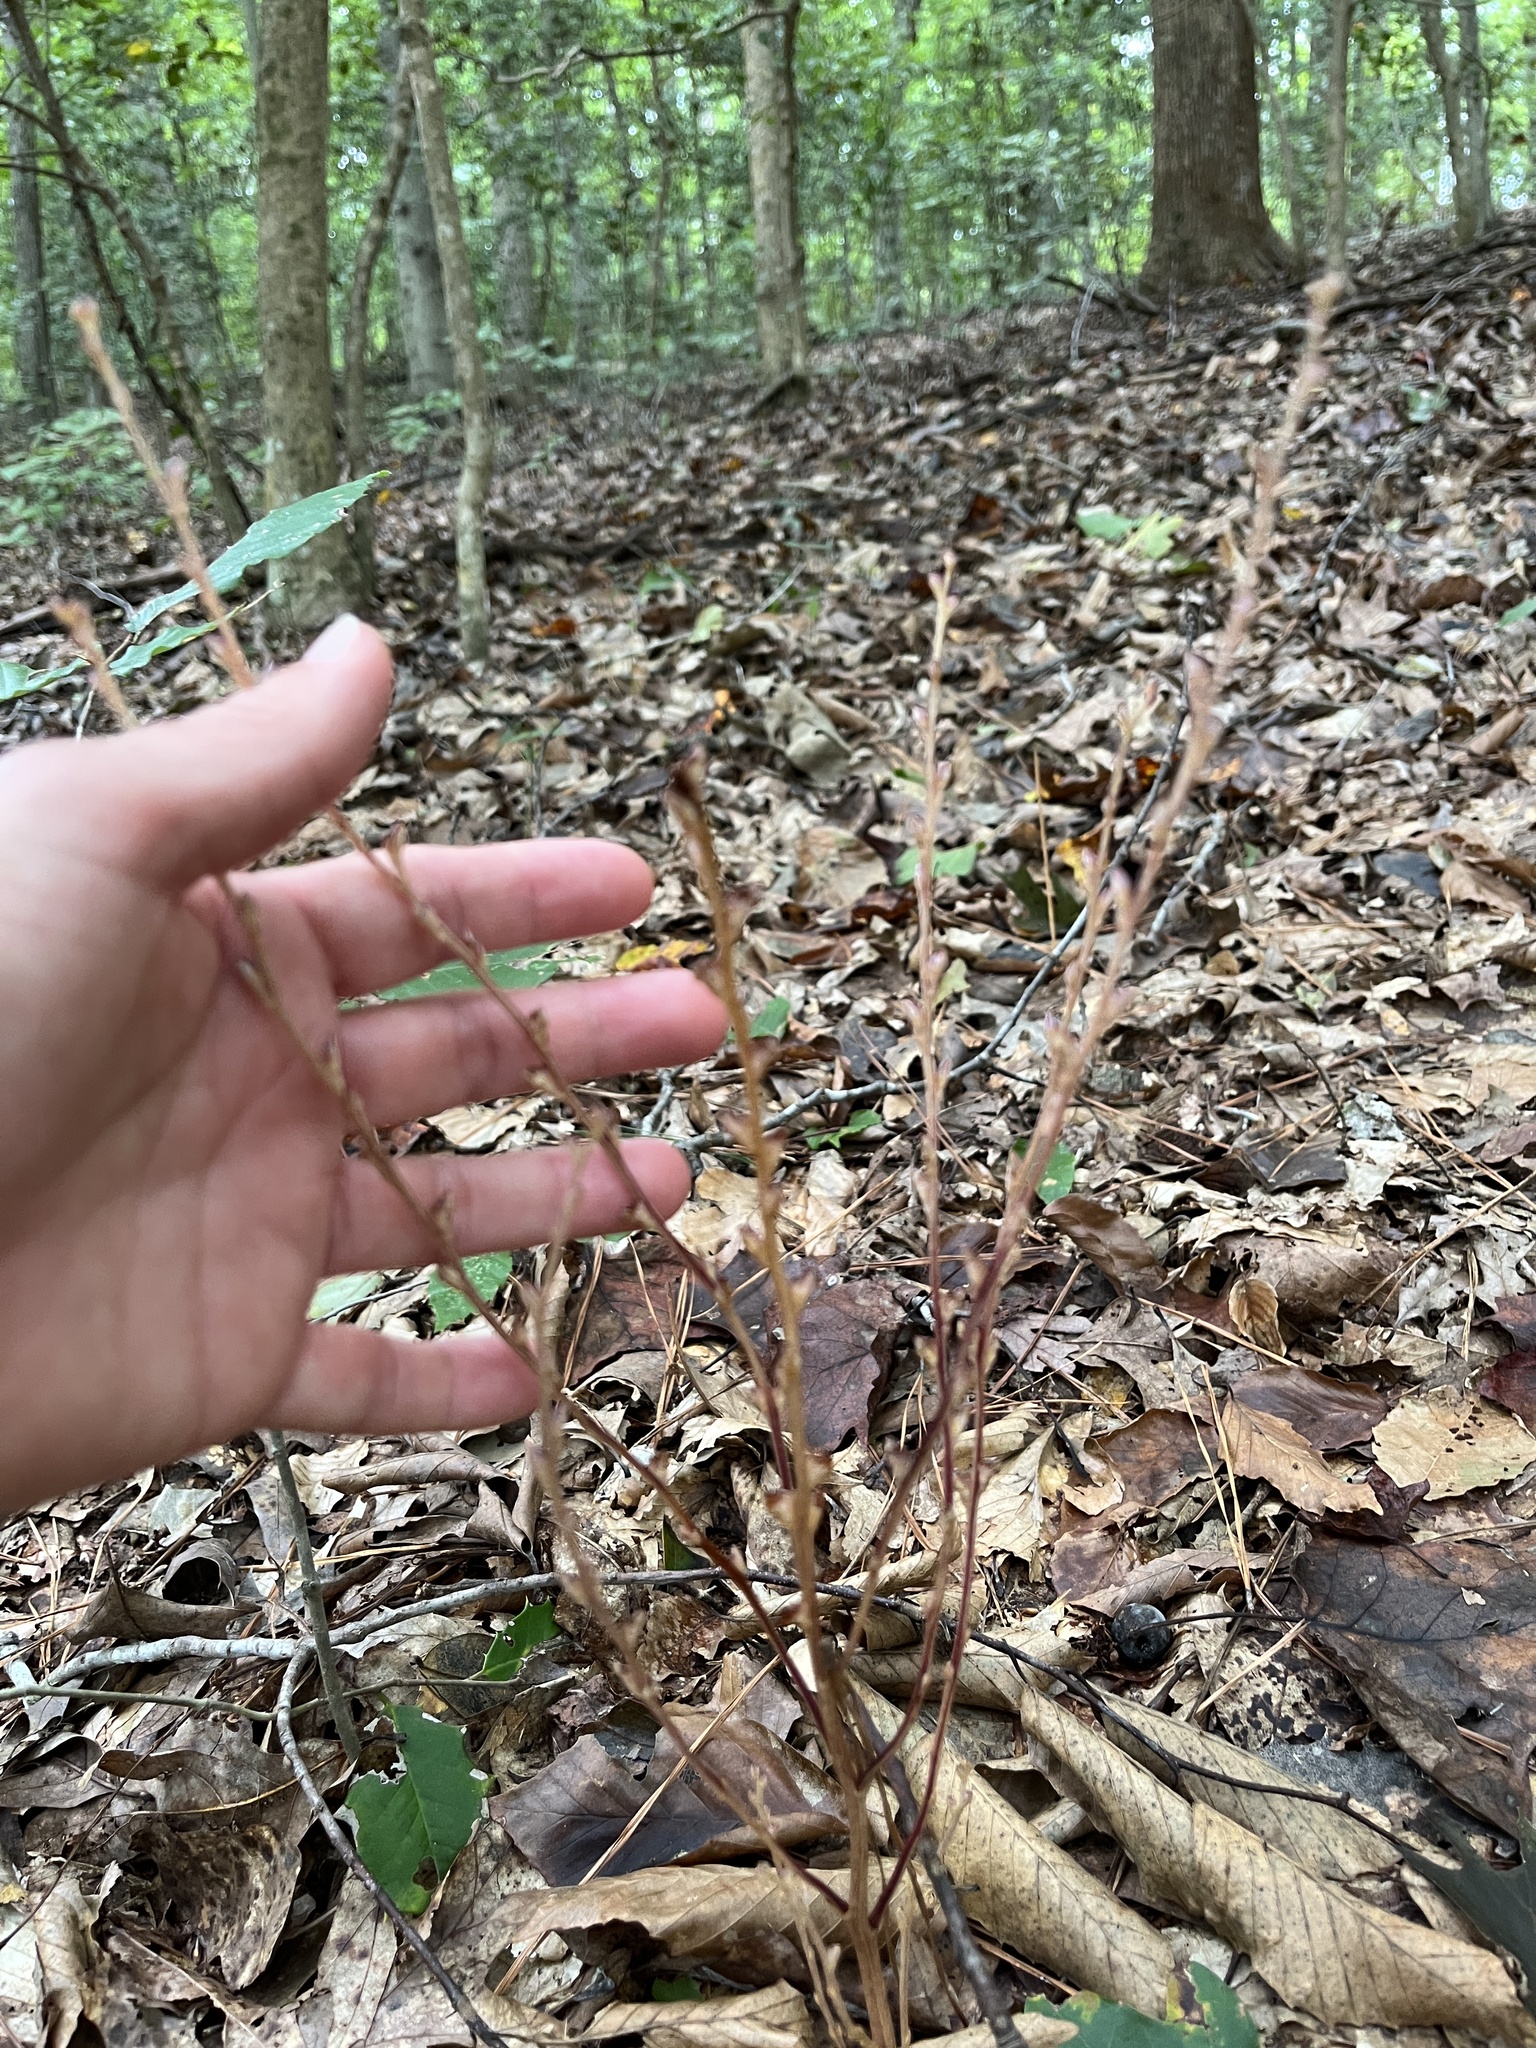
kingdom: Plantae
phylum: Tracheophyta
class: Magnoliopsida
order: Lamiales
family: Orobanchaceae
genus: Epifagus
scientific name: Epifagus virginiana
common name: Beechdrops
